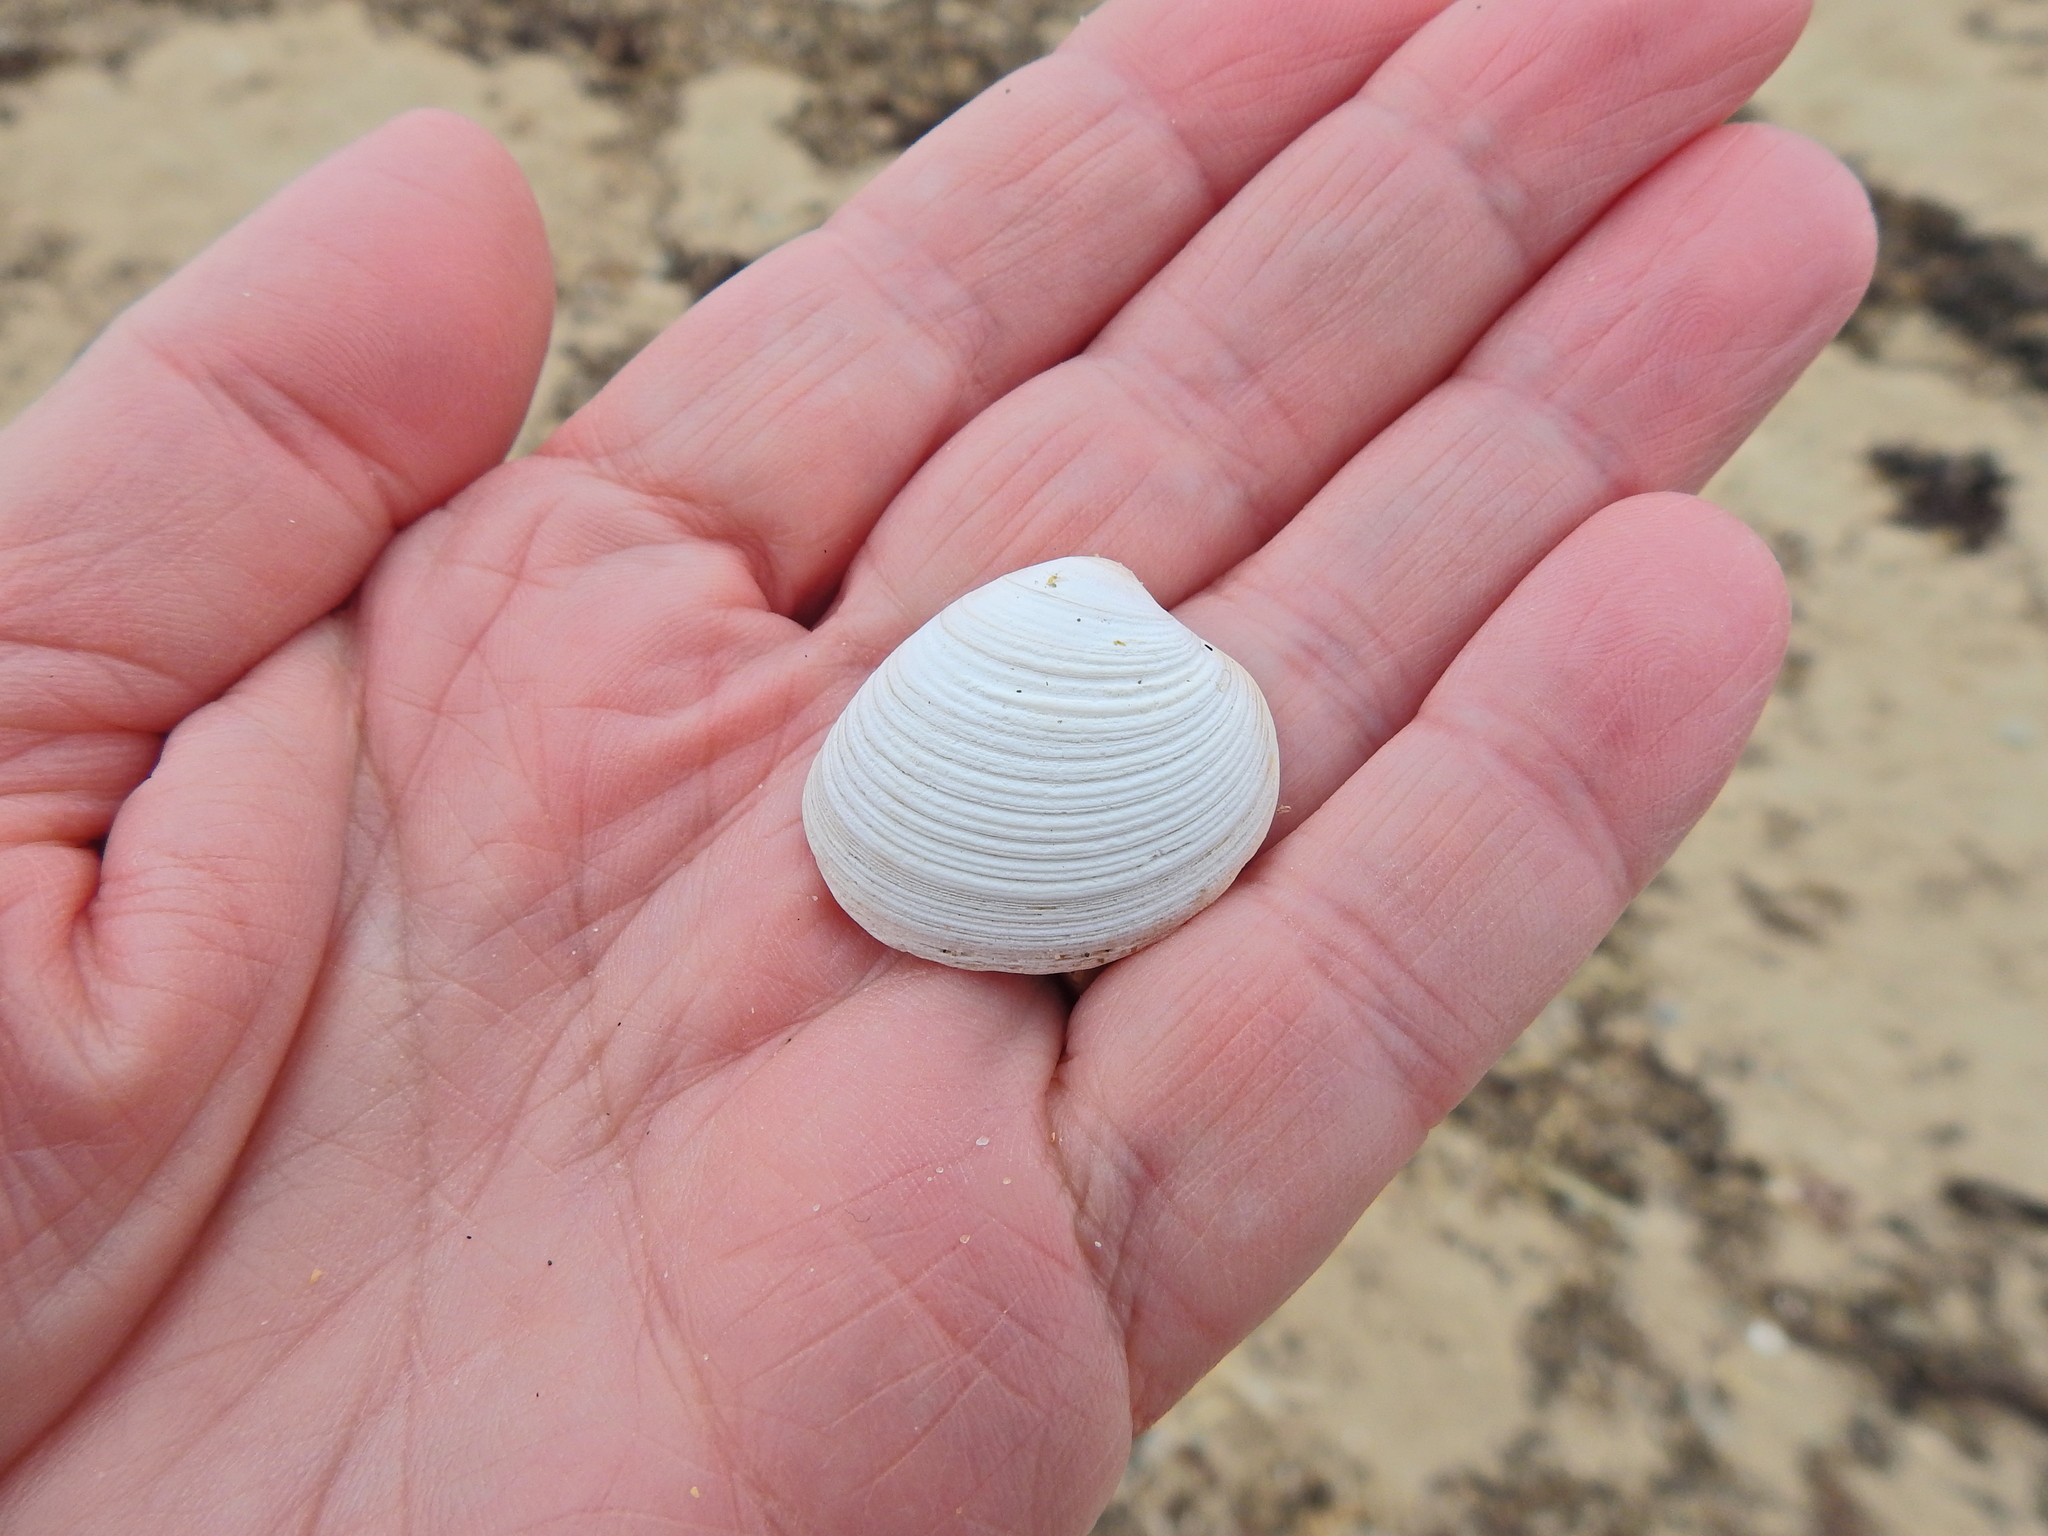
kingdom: Animalia
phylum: Mollusca
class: Bivalvia
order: Venerida
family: Veneridae
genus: Chamelea
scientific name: Chamelea striatula
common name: Striped venus
